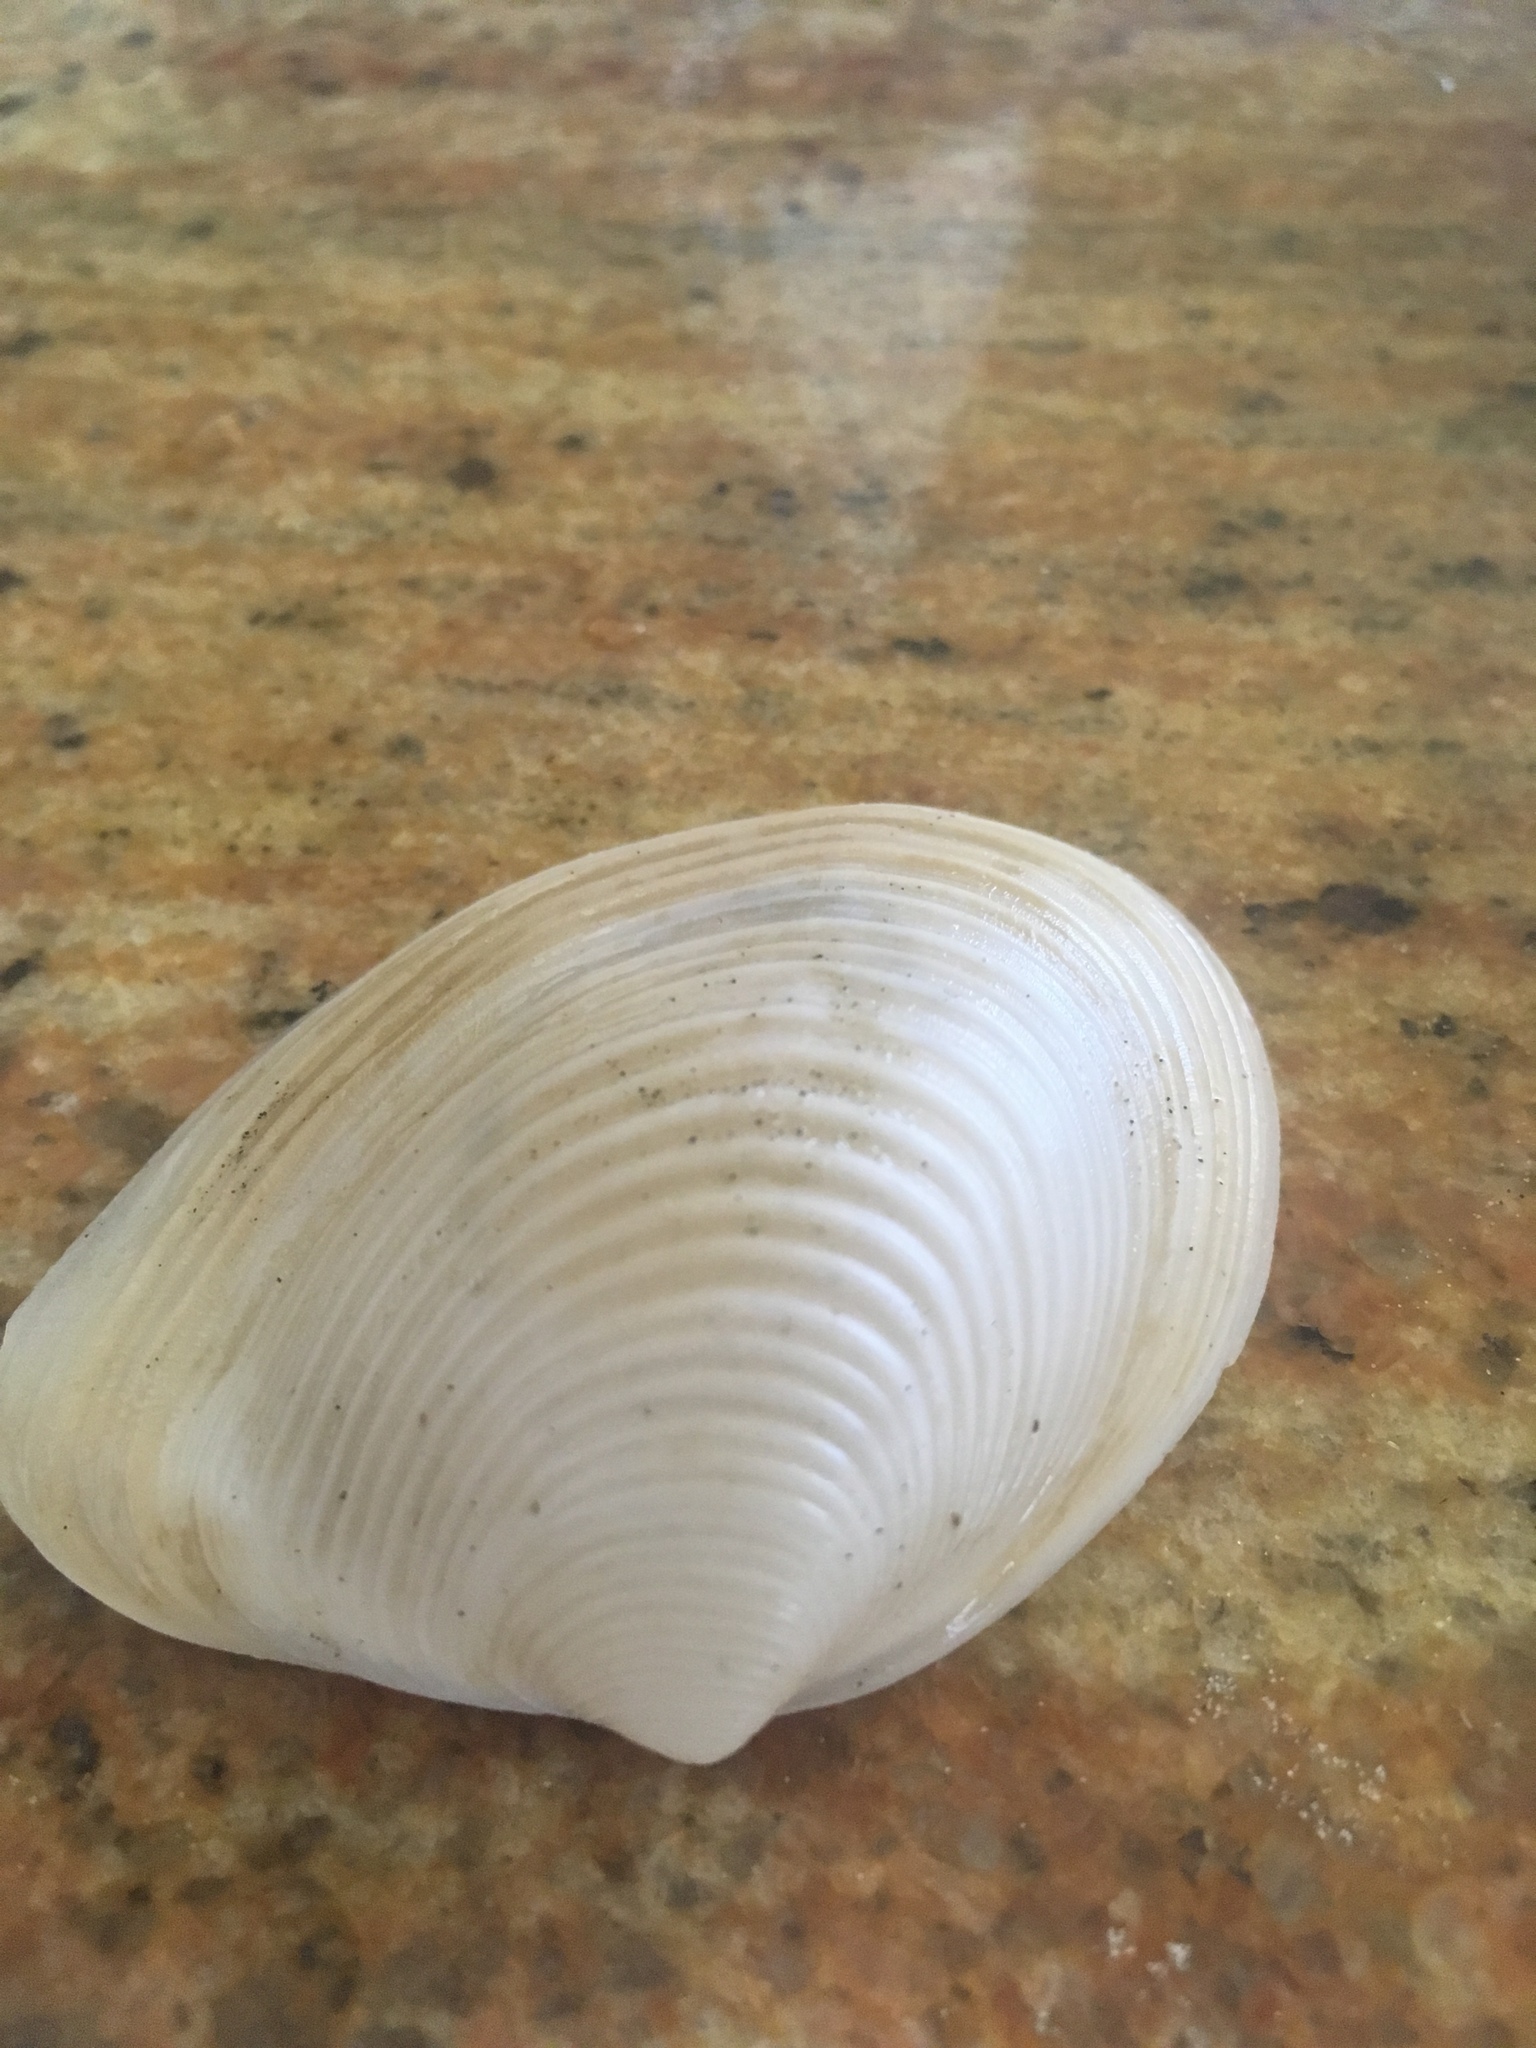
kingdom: Animalia
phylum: Mollusca
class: Bivalvia
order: Venerida
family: Anatinellidae
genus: Raeta
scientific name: Raeta plicatella
